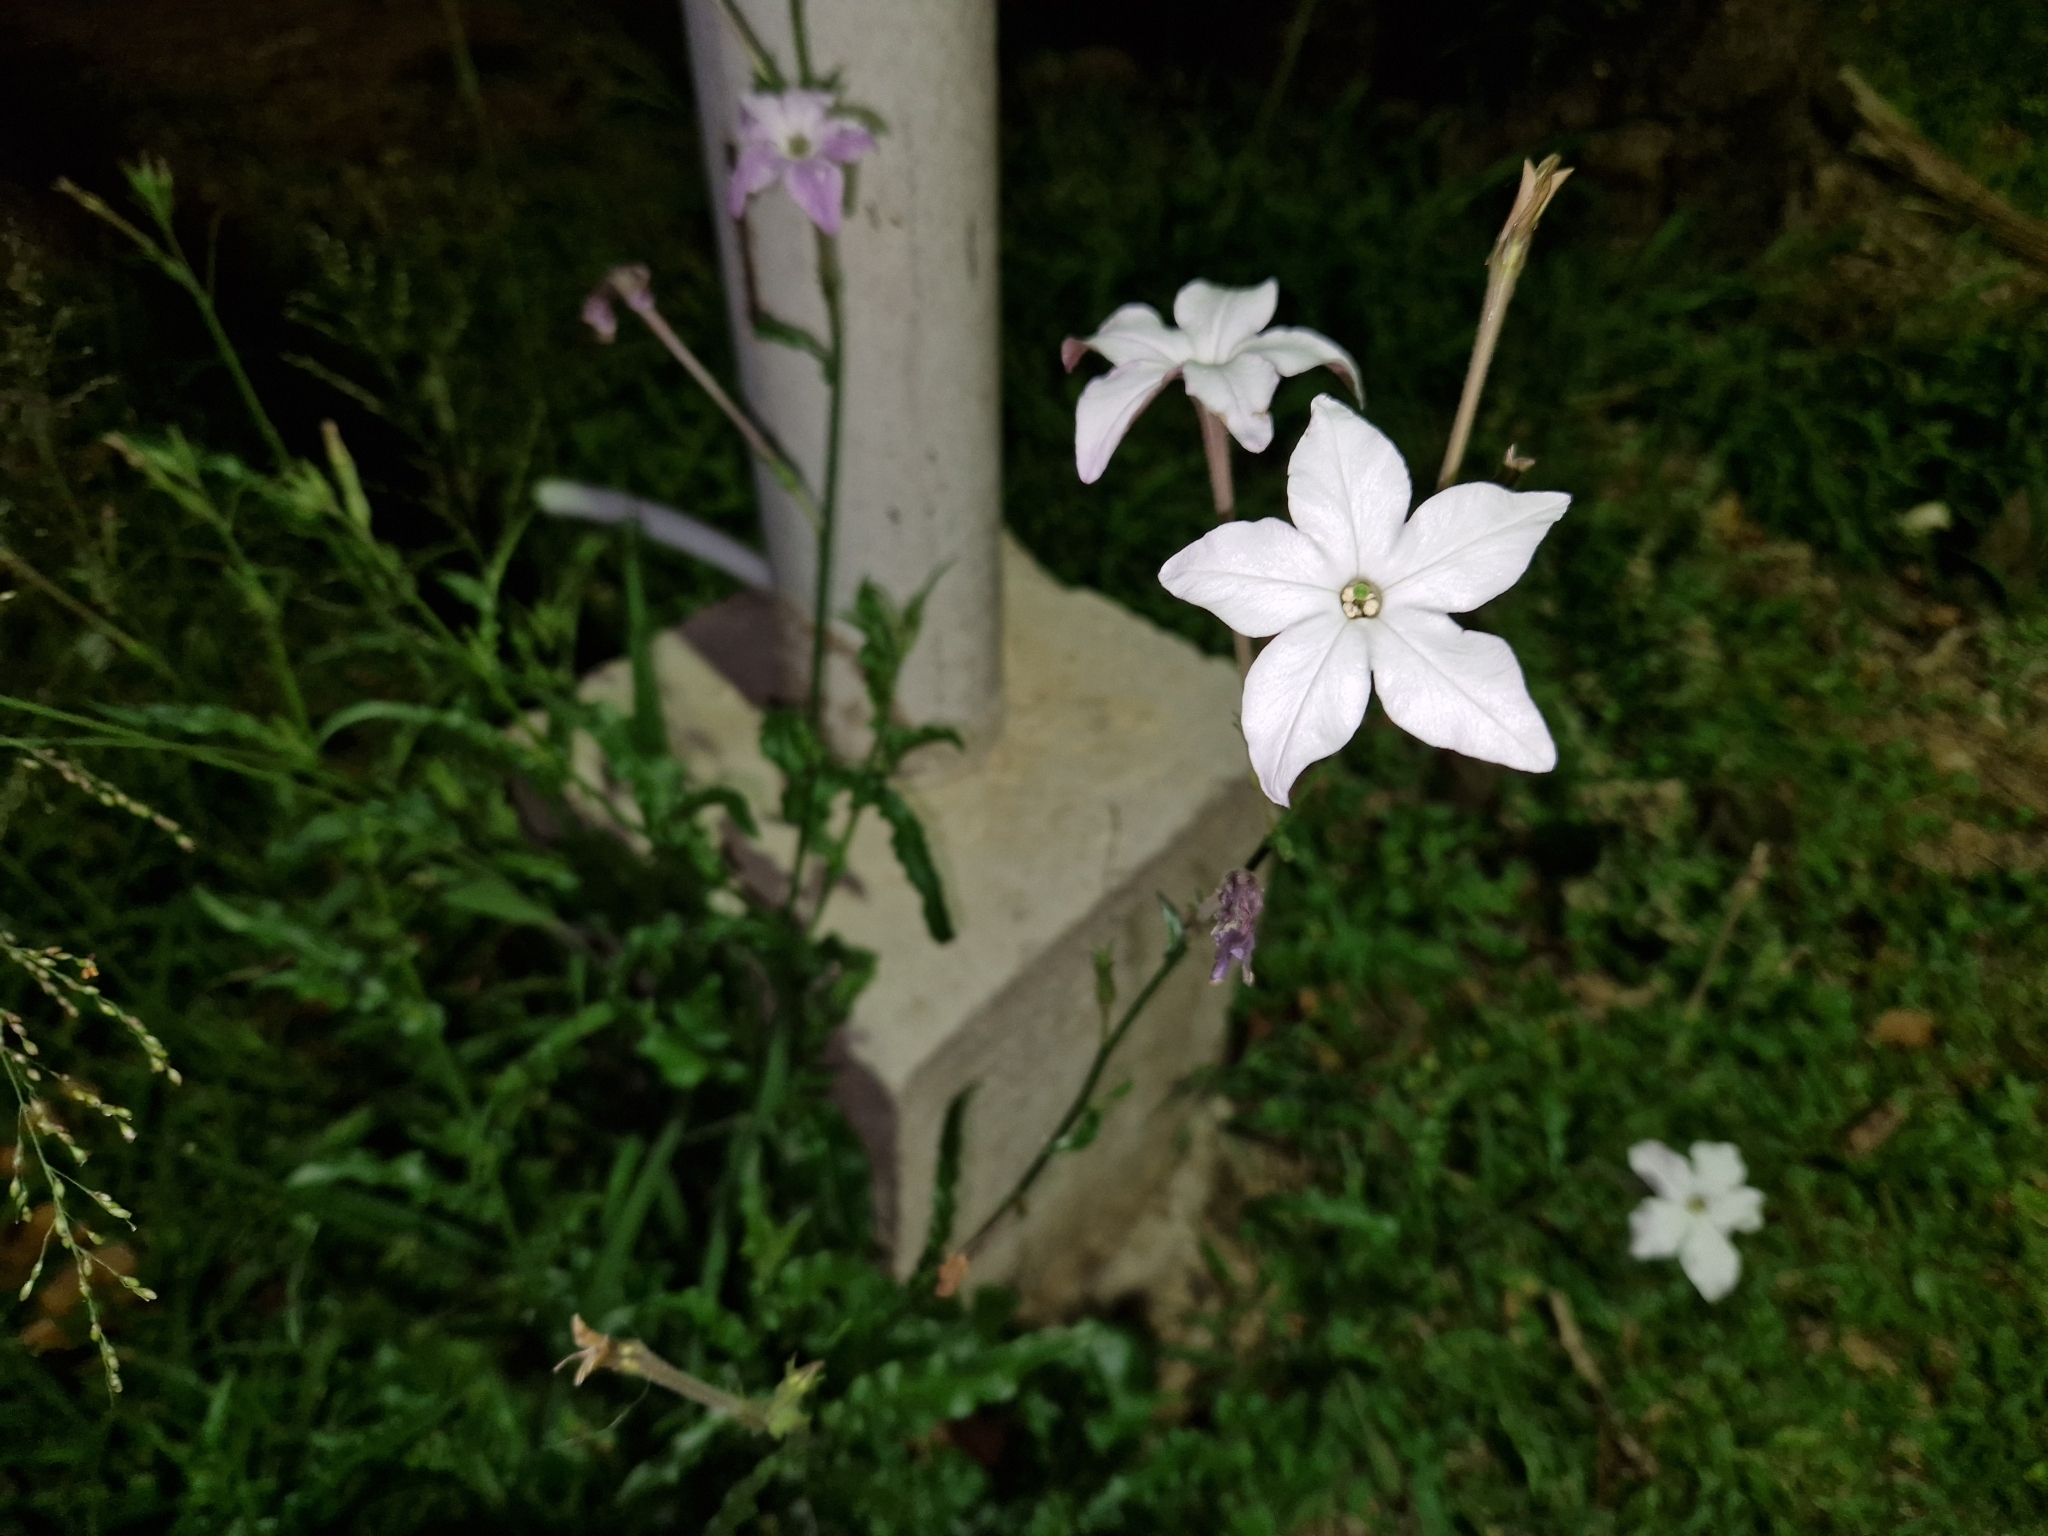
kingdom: Plantae
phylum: Tracheophyta
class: Magnoliopsida
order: Solanales
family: Solanaceae
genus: Nicotiana
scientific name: Nicotiana longiflora
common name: Long-flowered tobacco
